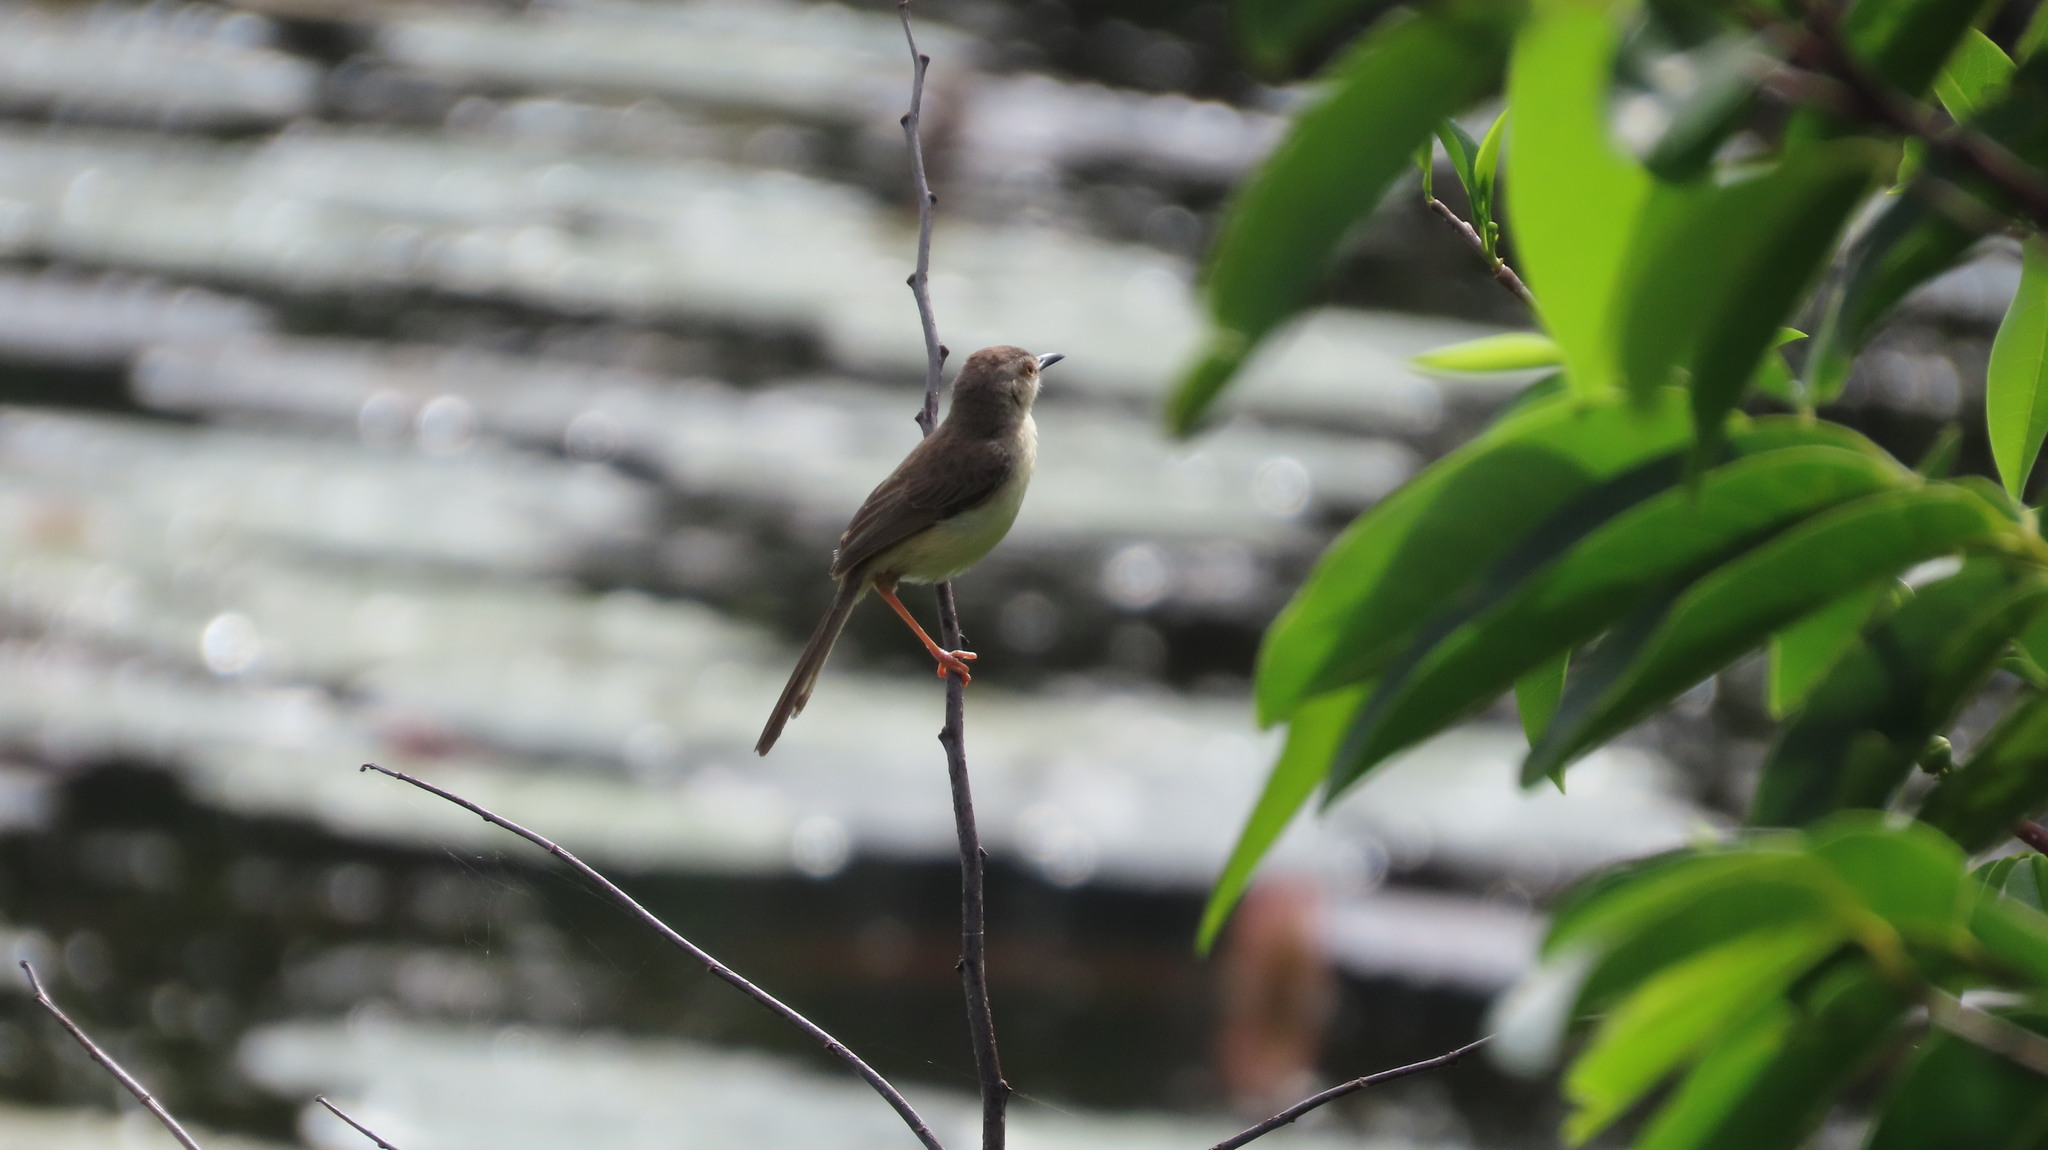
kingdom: Animalia
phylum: Chordata
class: Aves
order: Passeriformes
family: Cisticolidae
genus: Prinia
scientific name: Prinia inornata
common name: Plain prinia
